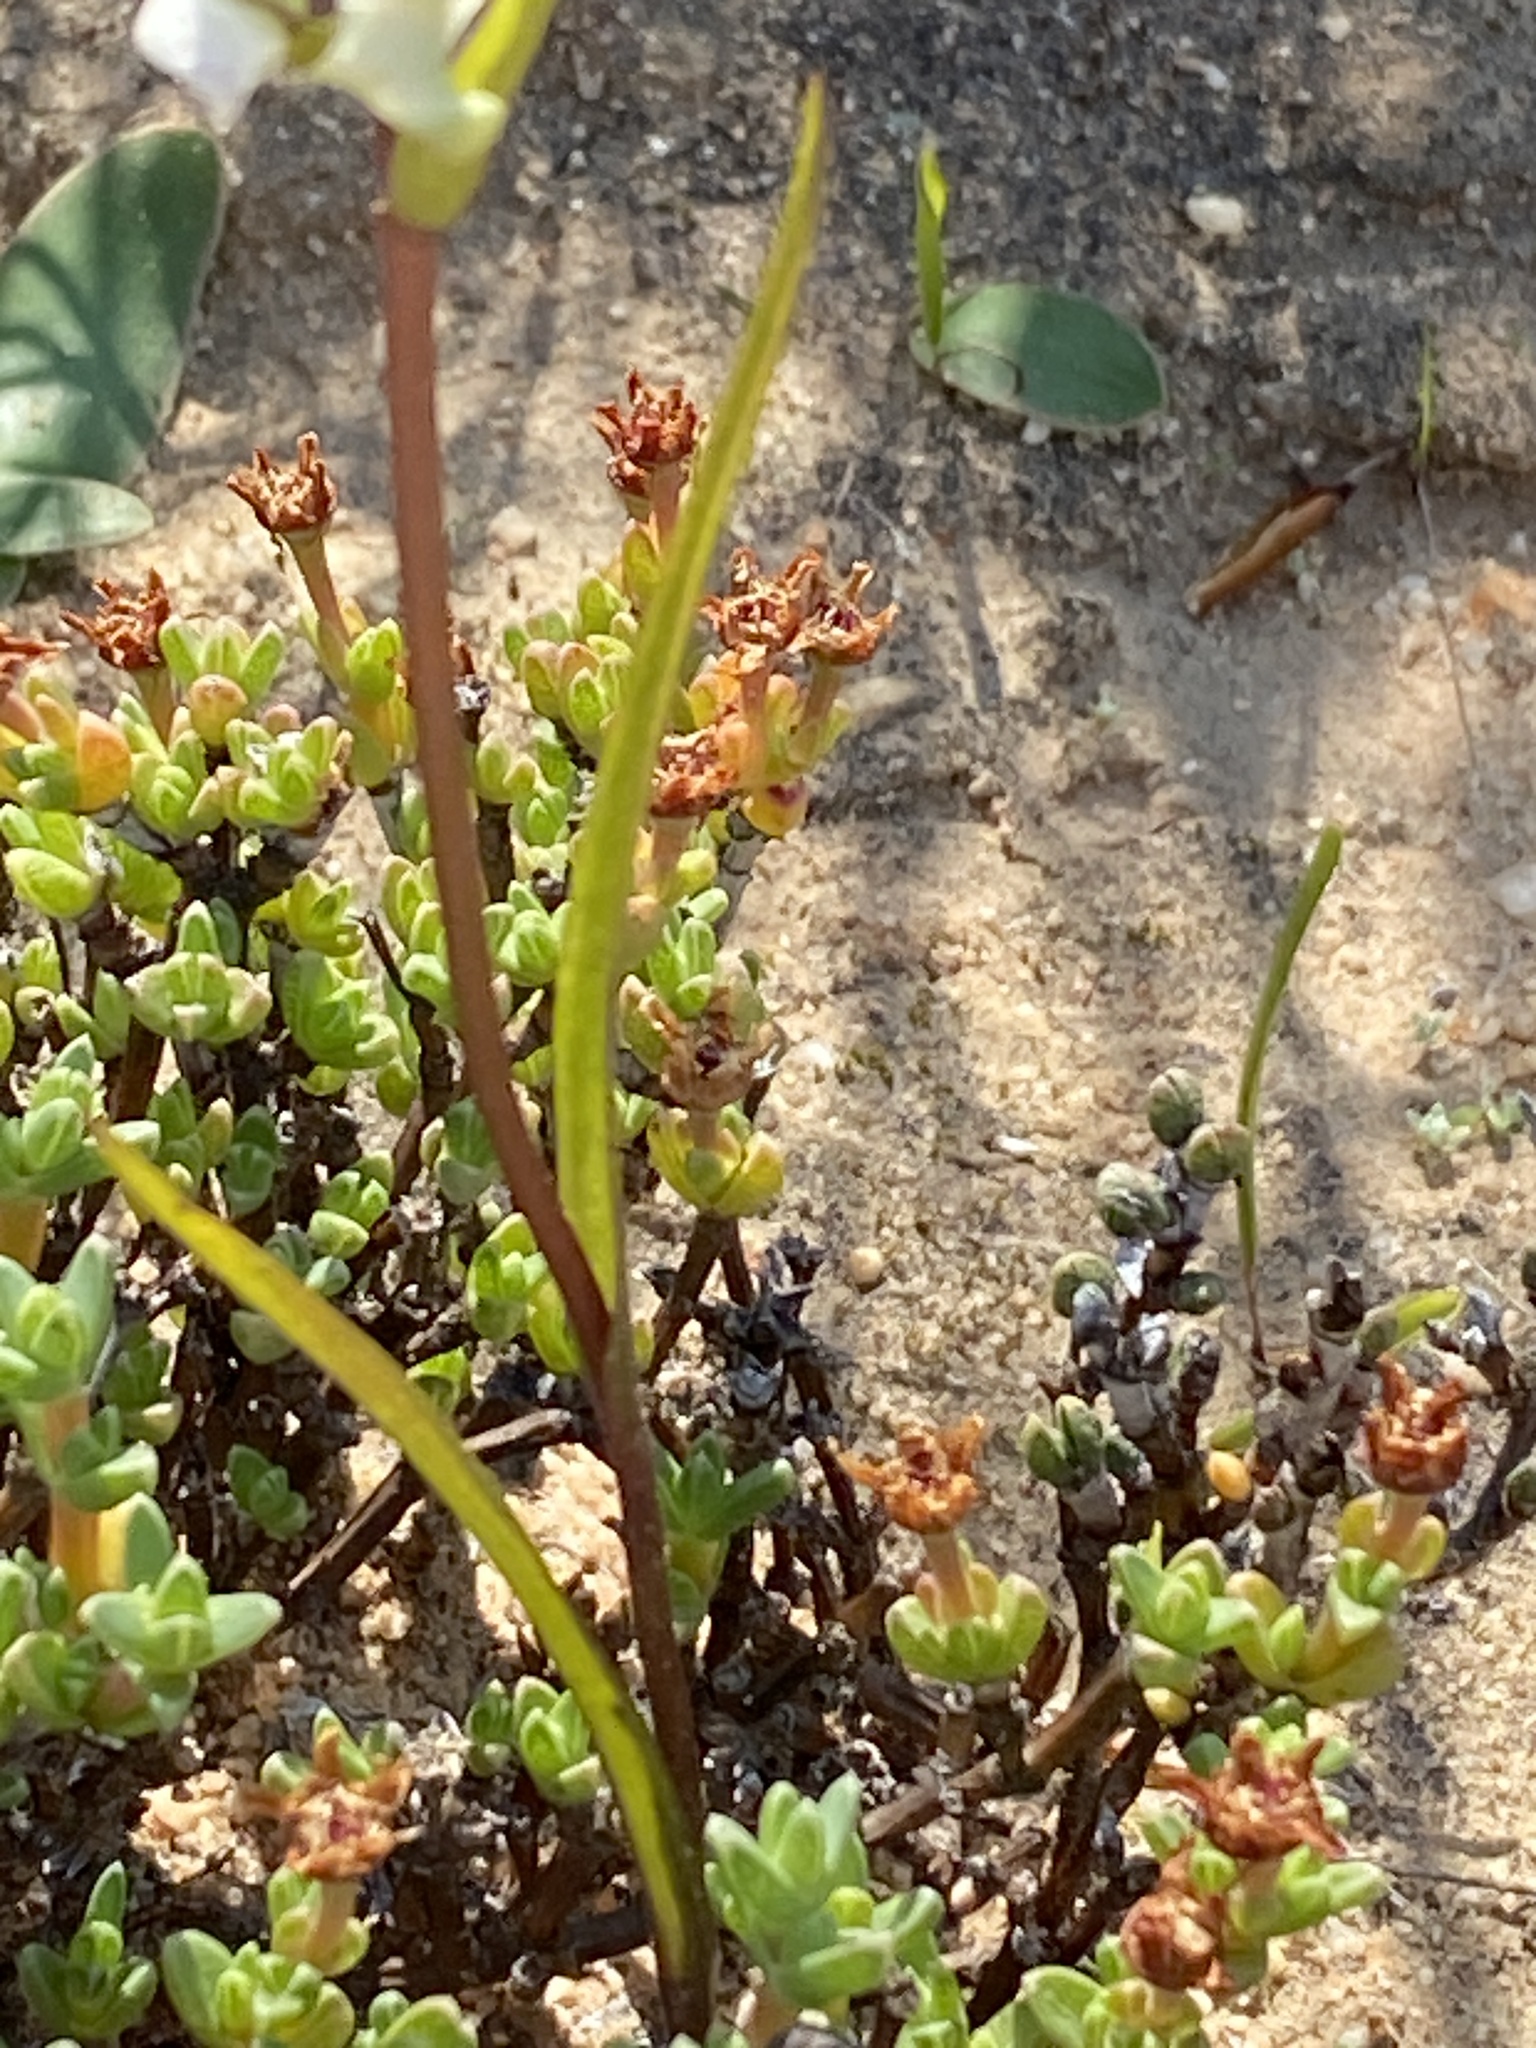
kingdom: Plantae
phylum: Tracheophyta
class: Liliopsida
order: Asparagales
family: Orchidaceae
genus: Disperis
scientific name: Disperis circumflexa
